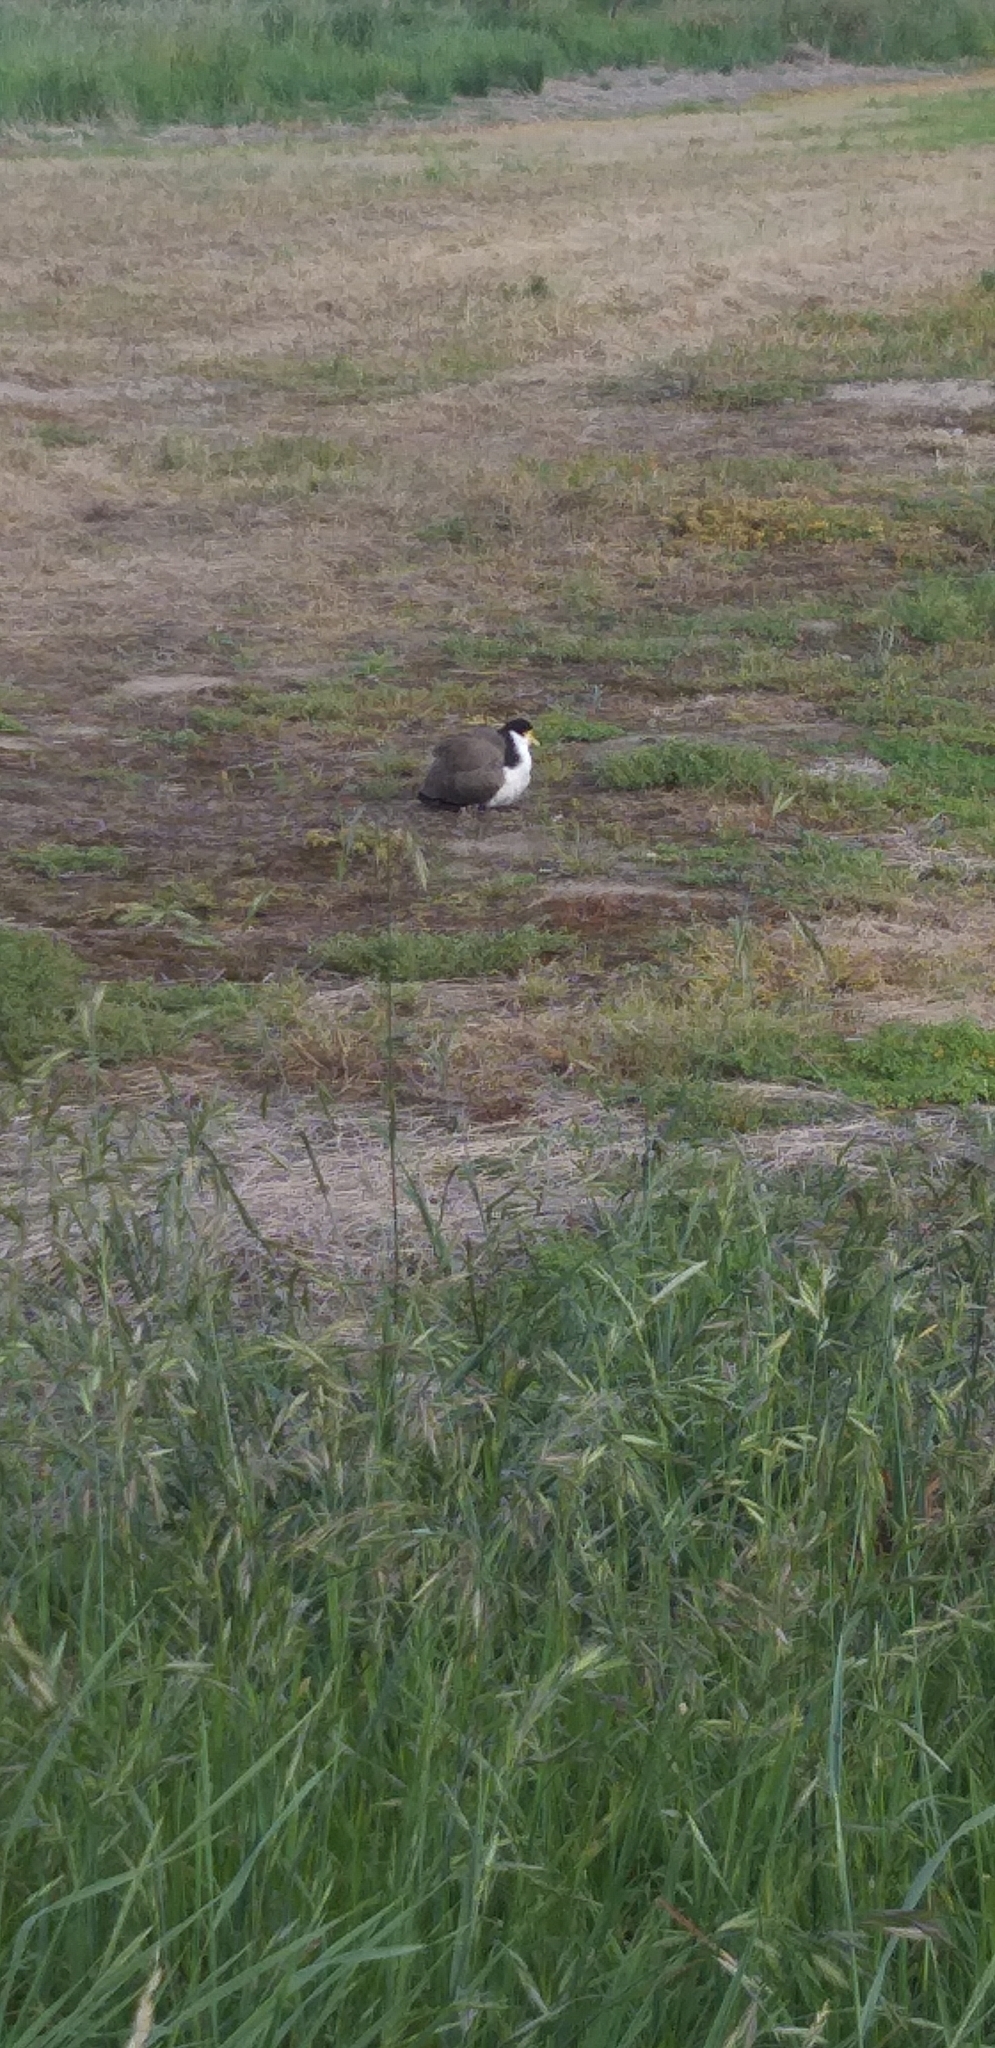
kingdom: Animalia
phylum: Chordata
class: Aves
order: Charadriiformes
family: Charadriidae
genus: Vanellus
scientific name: Vanellus miles
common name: Masked lapwing
